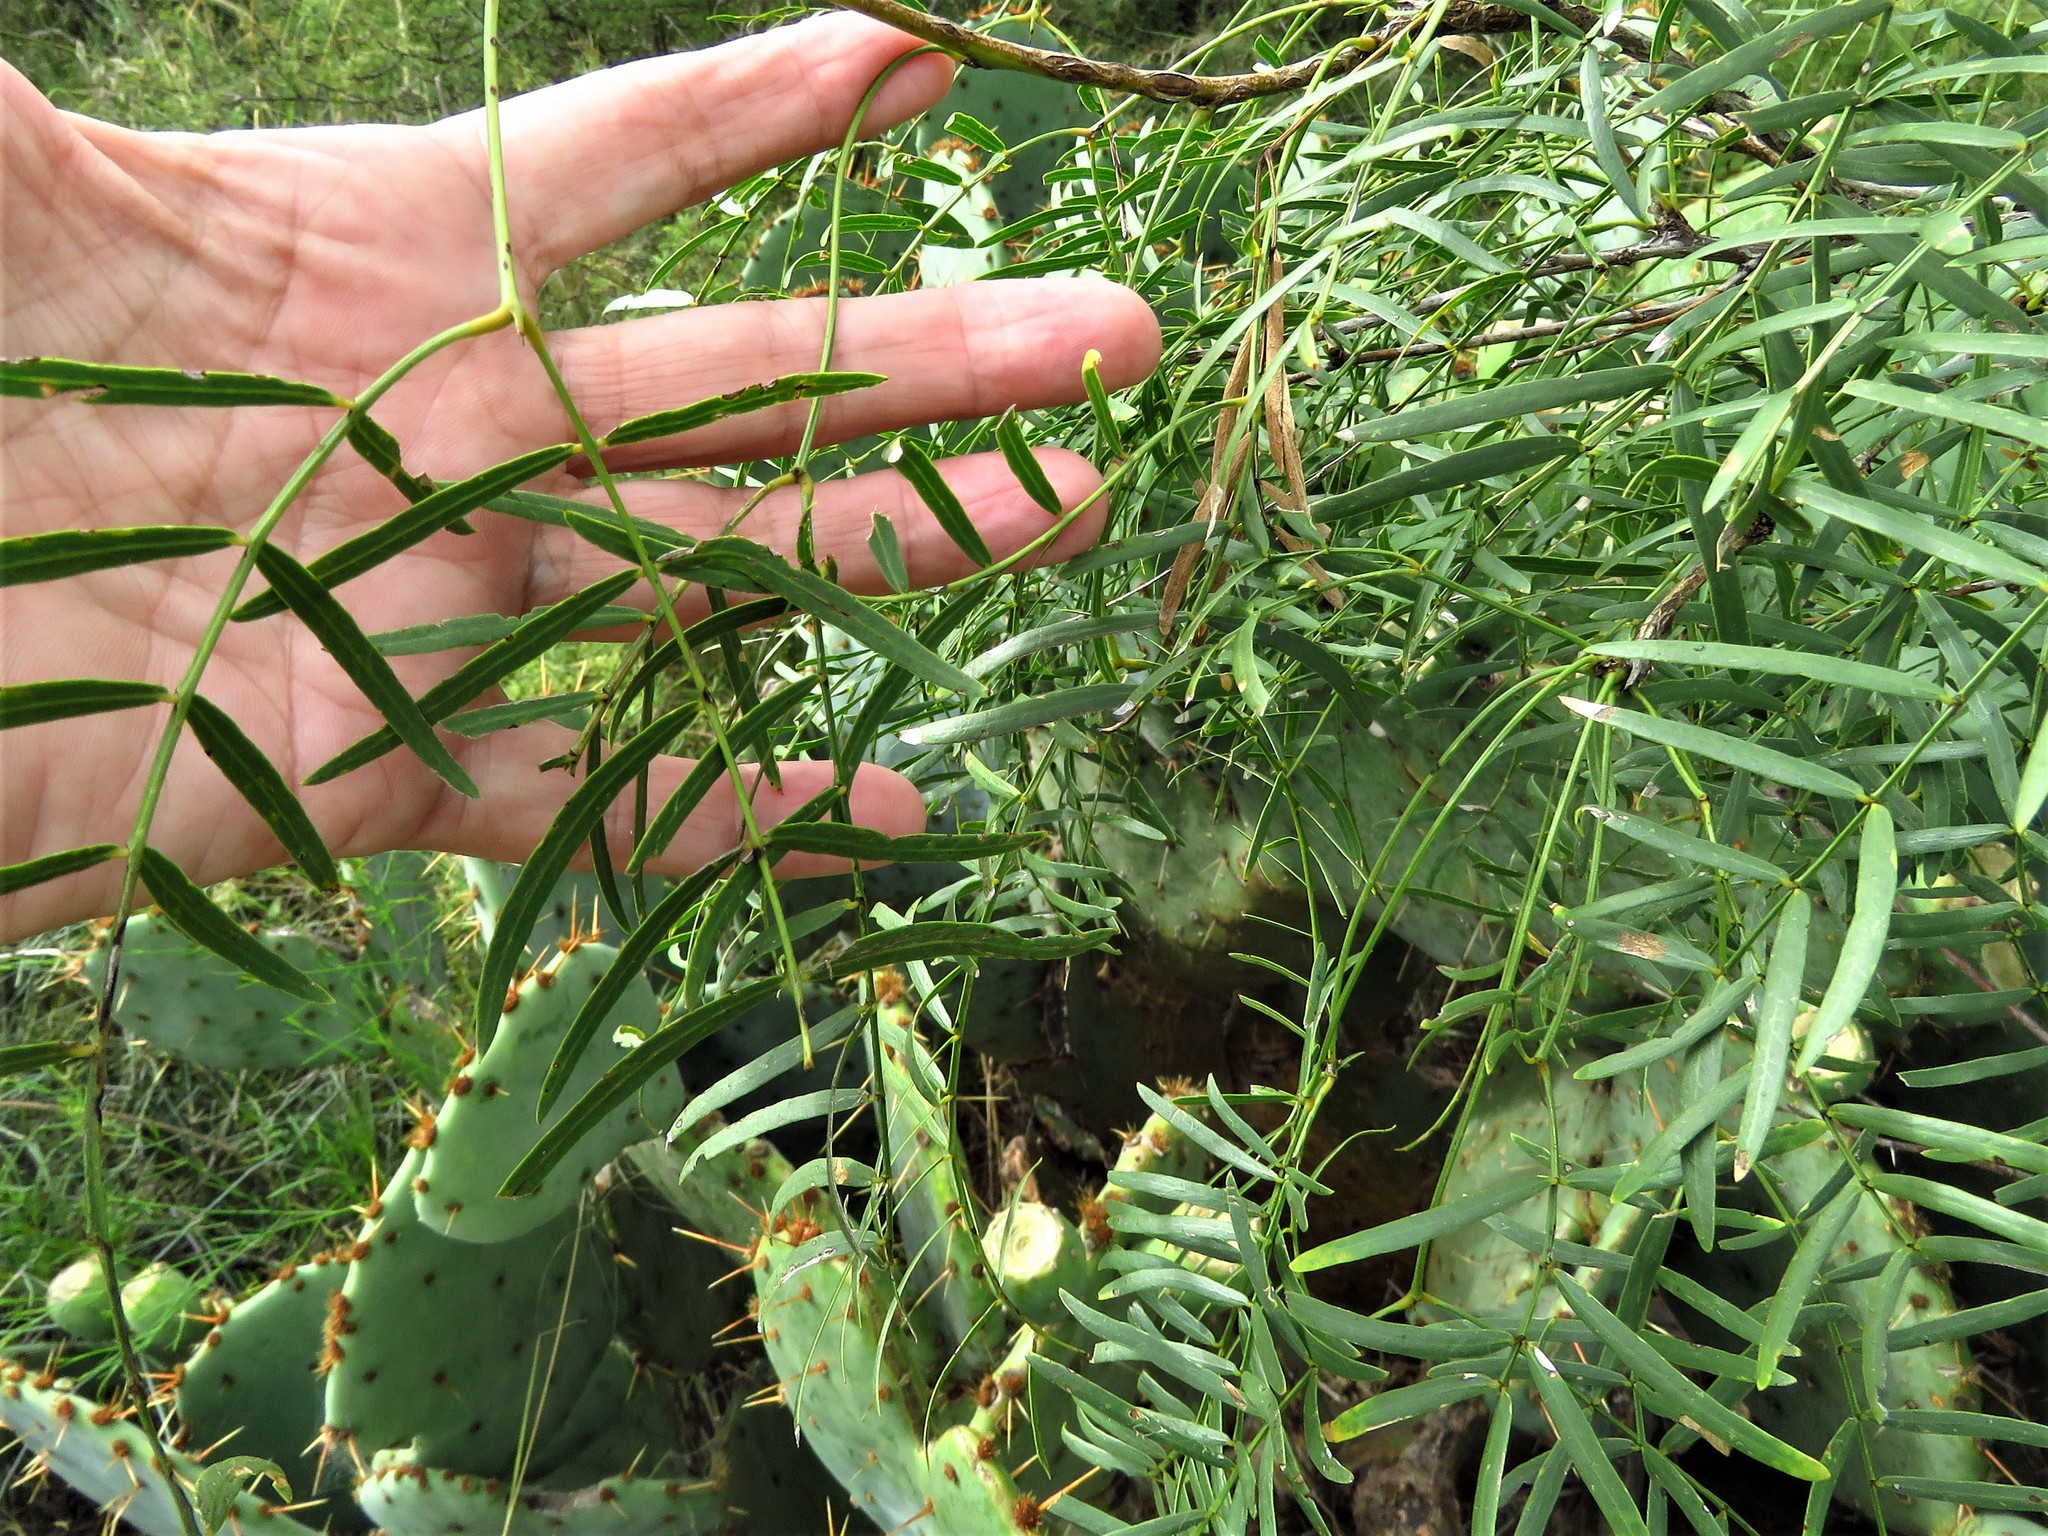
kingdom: Plantae
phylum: Tracheophyta
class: Magnoliopsida
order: Fabales
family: Fabaceae
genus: Prosopis
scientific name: Prosopis glandulosa
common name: Honey mesquite
